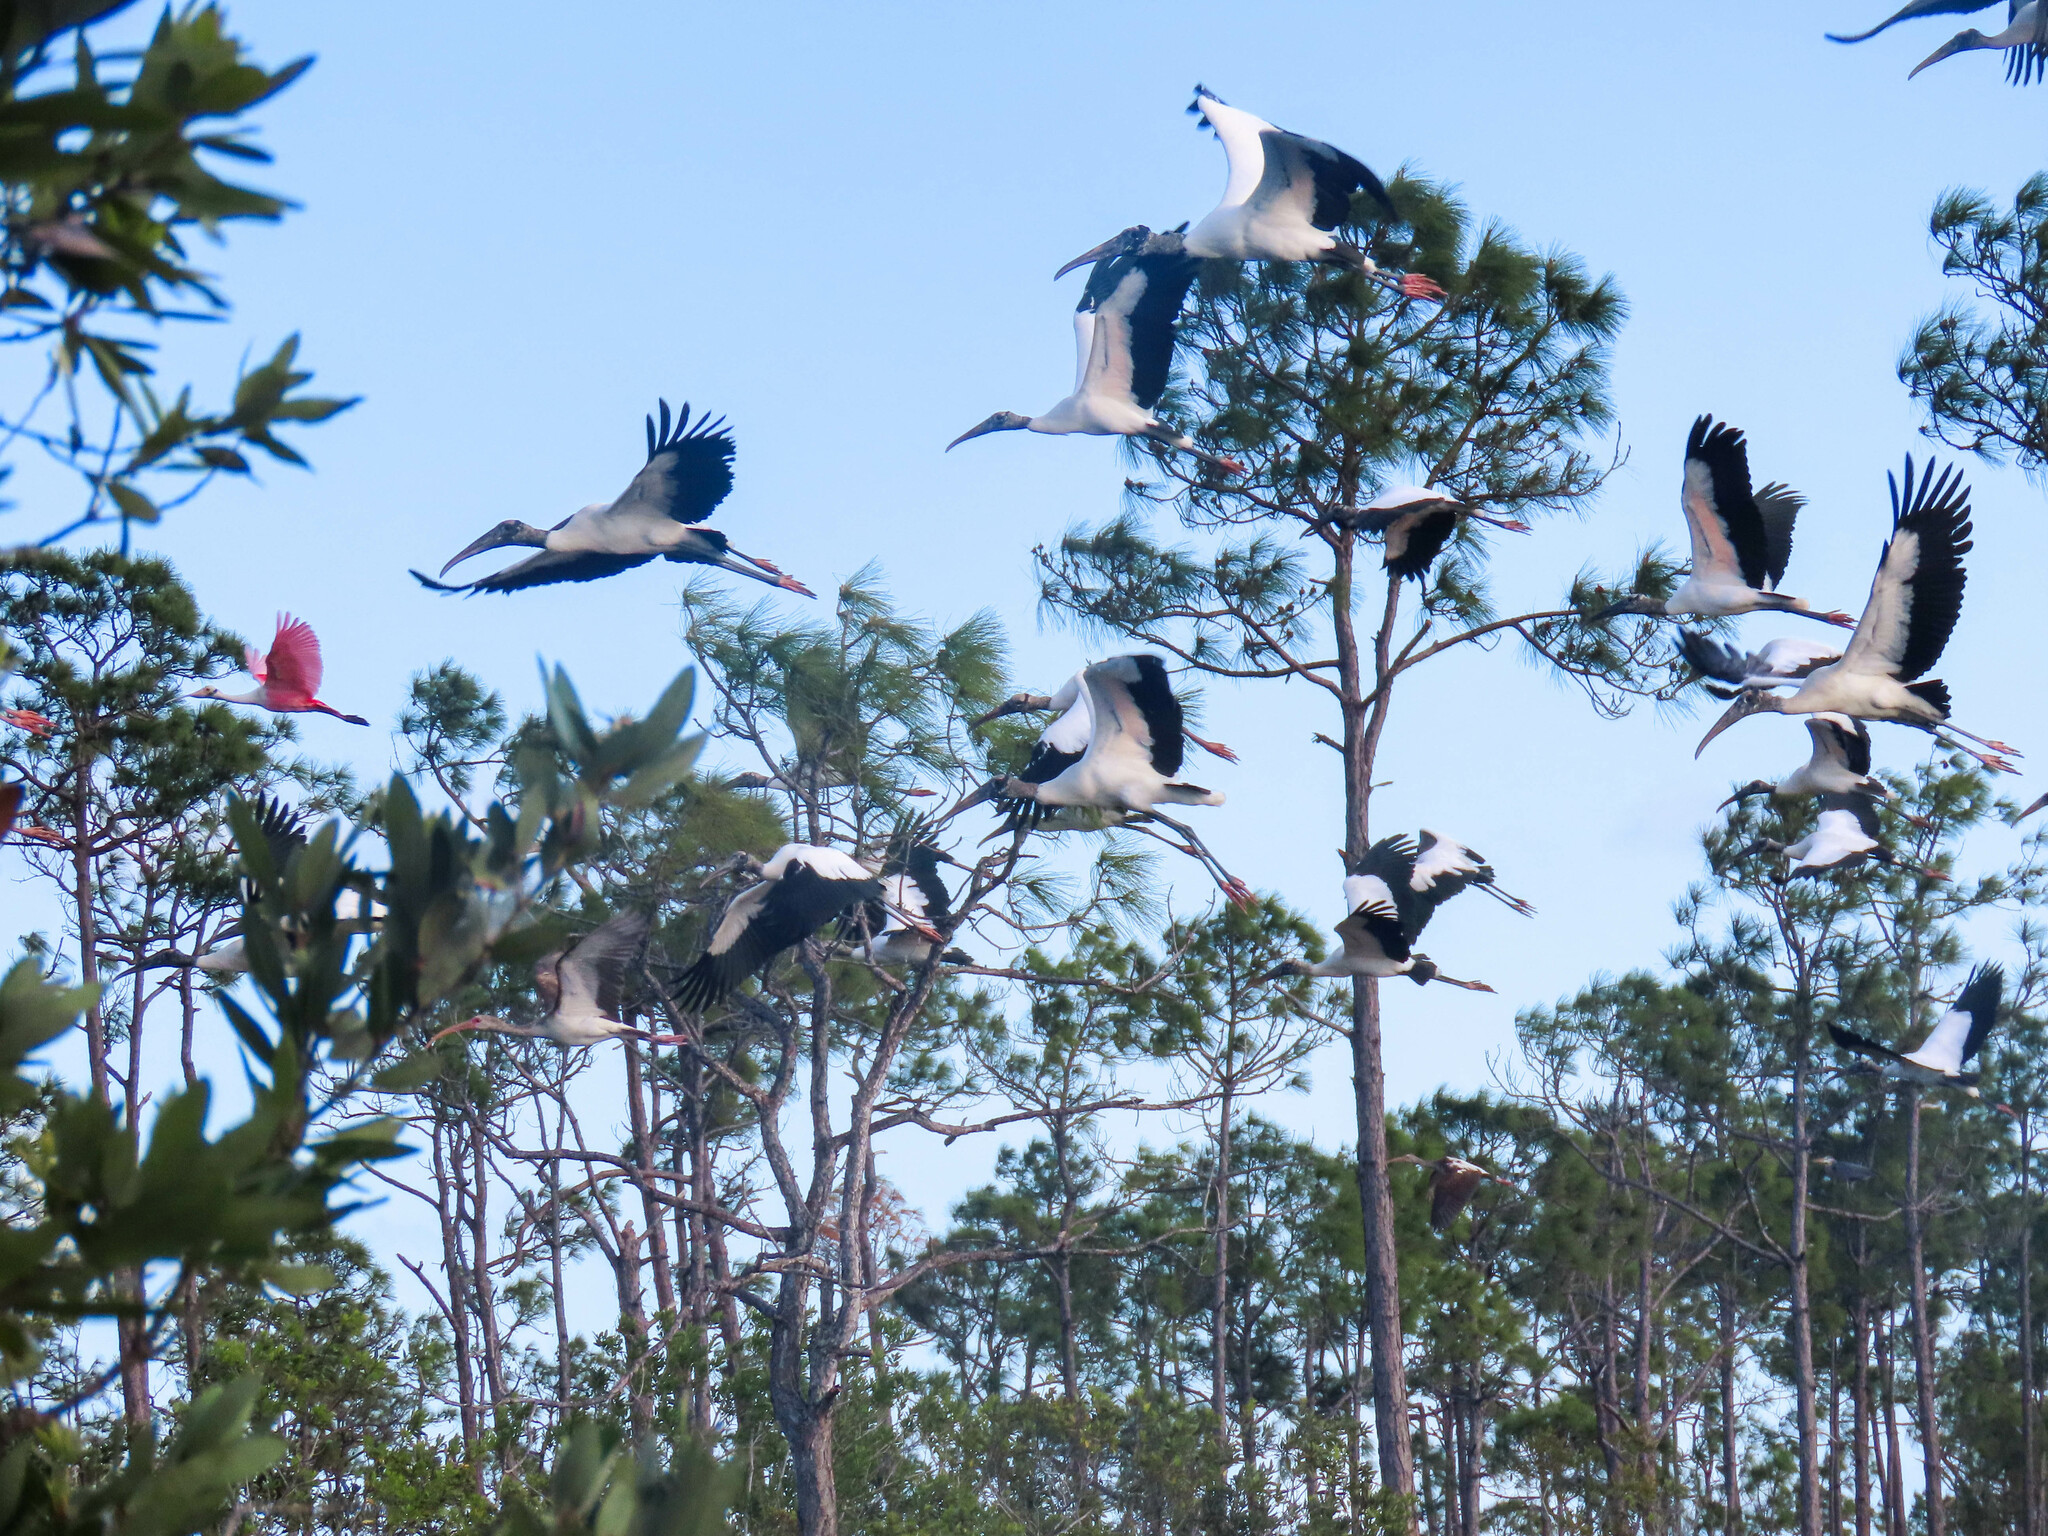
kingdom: Animalia
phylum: Chordata
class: Aves
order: Ciconiiformes
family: Ciconiidae
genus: Mycteria
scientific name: Mycteria americana
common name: Wood stork
